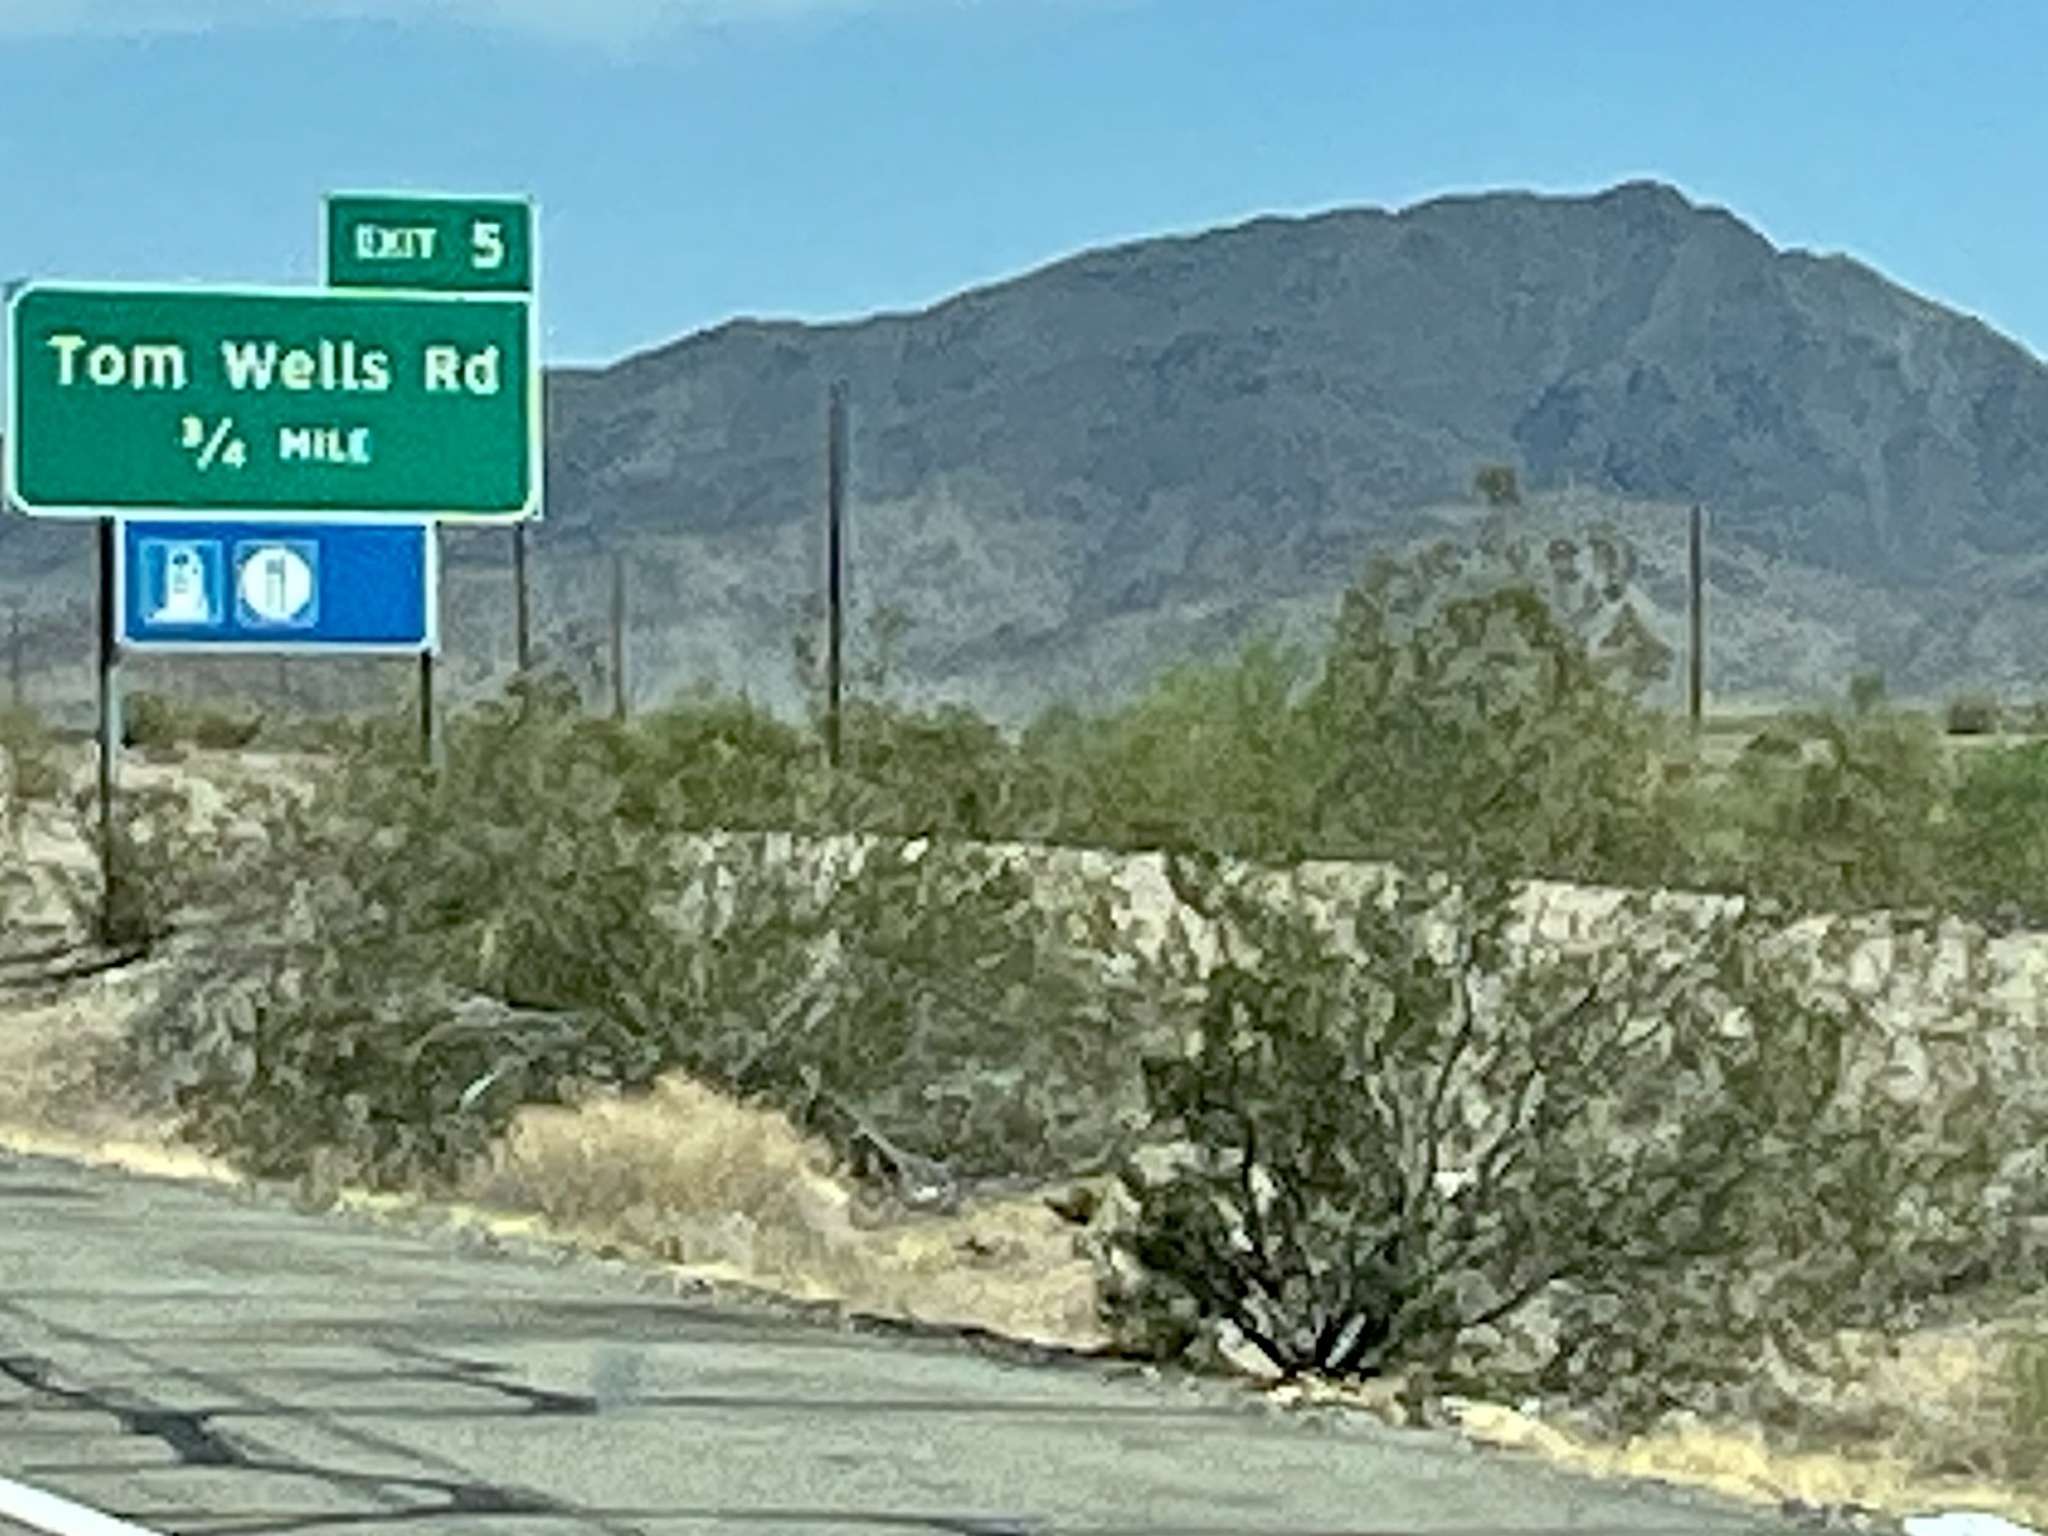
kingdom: Plantae
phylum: Tracheophyta
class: Magnoliopsida
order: Zygophyllales
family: Zygophyllaceae
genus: Larrea
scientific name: Larrea tridentata
